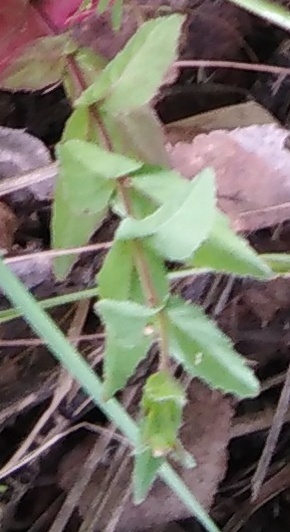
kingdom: Plantae
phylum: Tracheophyta
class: Magnoliopsida
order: Lamiales
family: Plantaginaceae
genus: Veronica
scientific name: Veronica chamaedrys
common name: Germander speedwell
